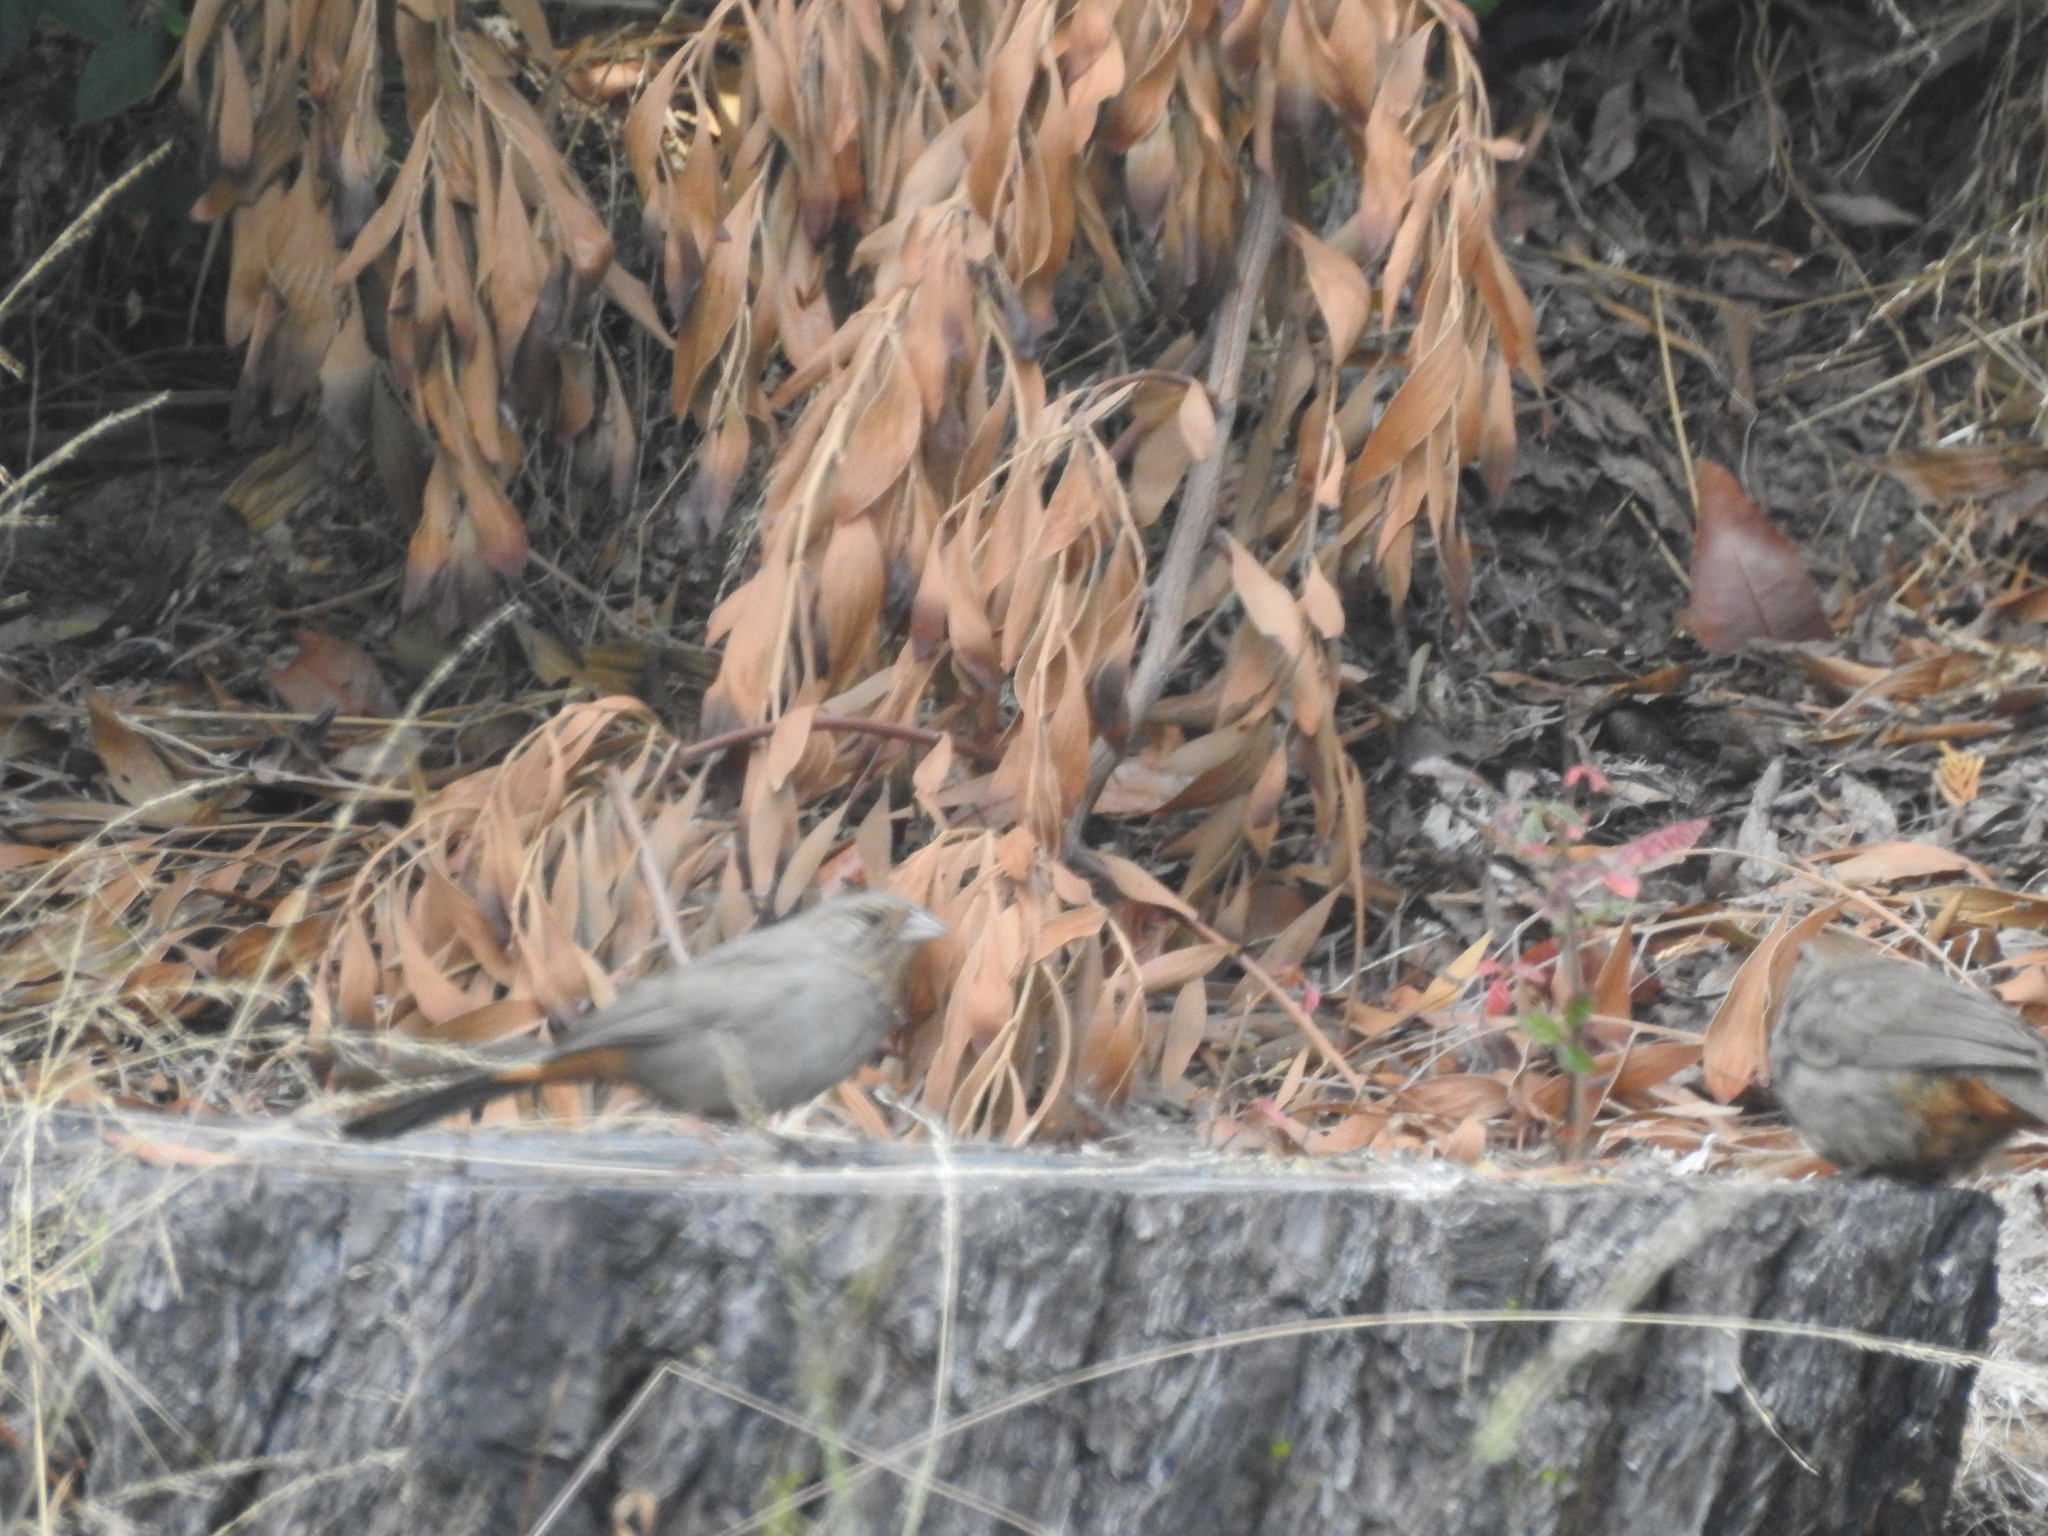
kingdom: Animalia
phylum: Chordata
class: Aves
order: Passeriformes
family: Passerellidae
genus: Melozone
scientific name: Melozone crissalis
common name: California towhee
